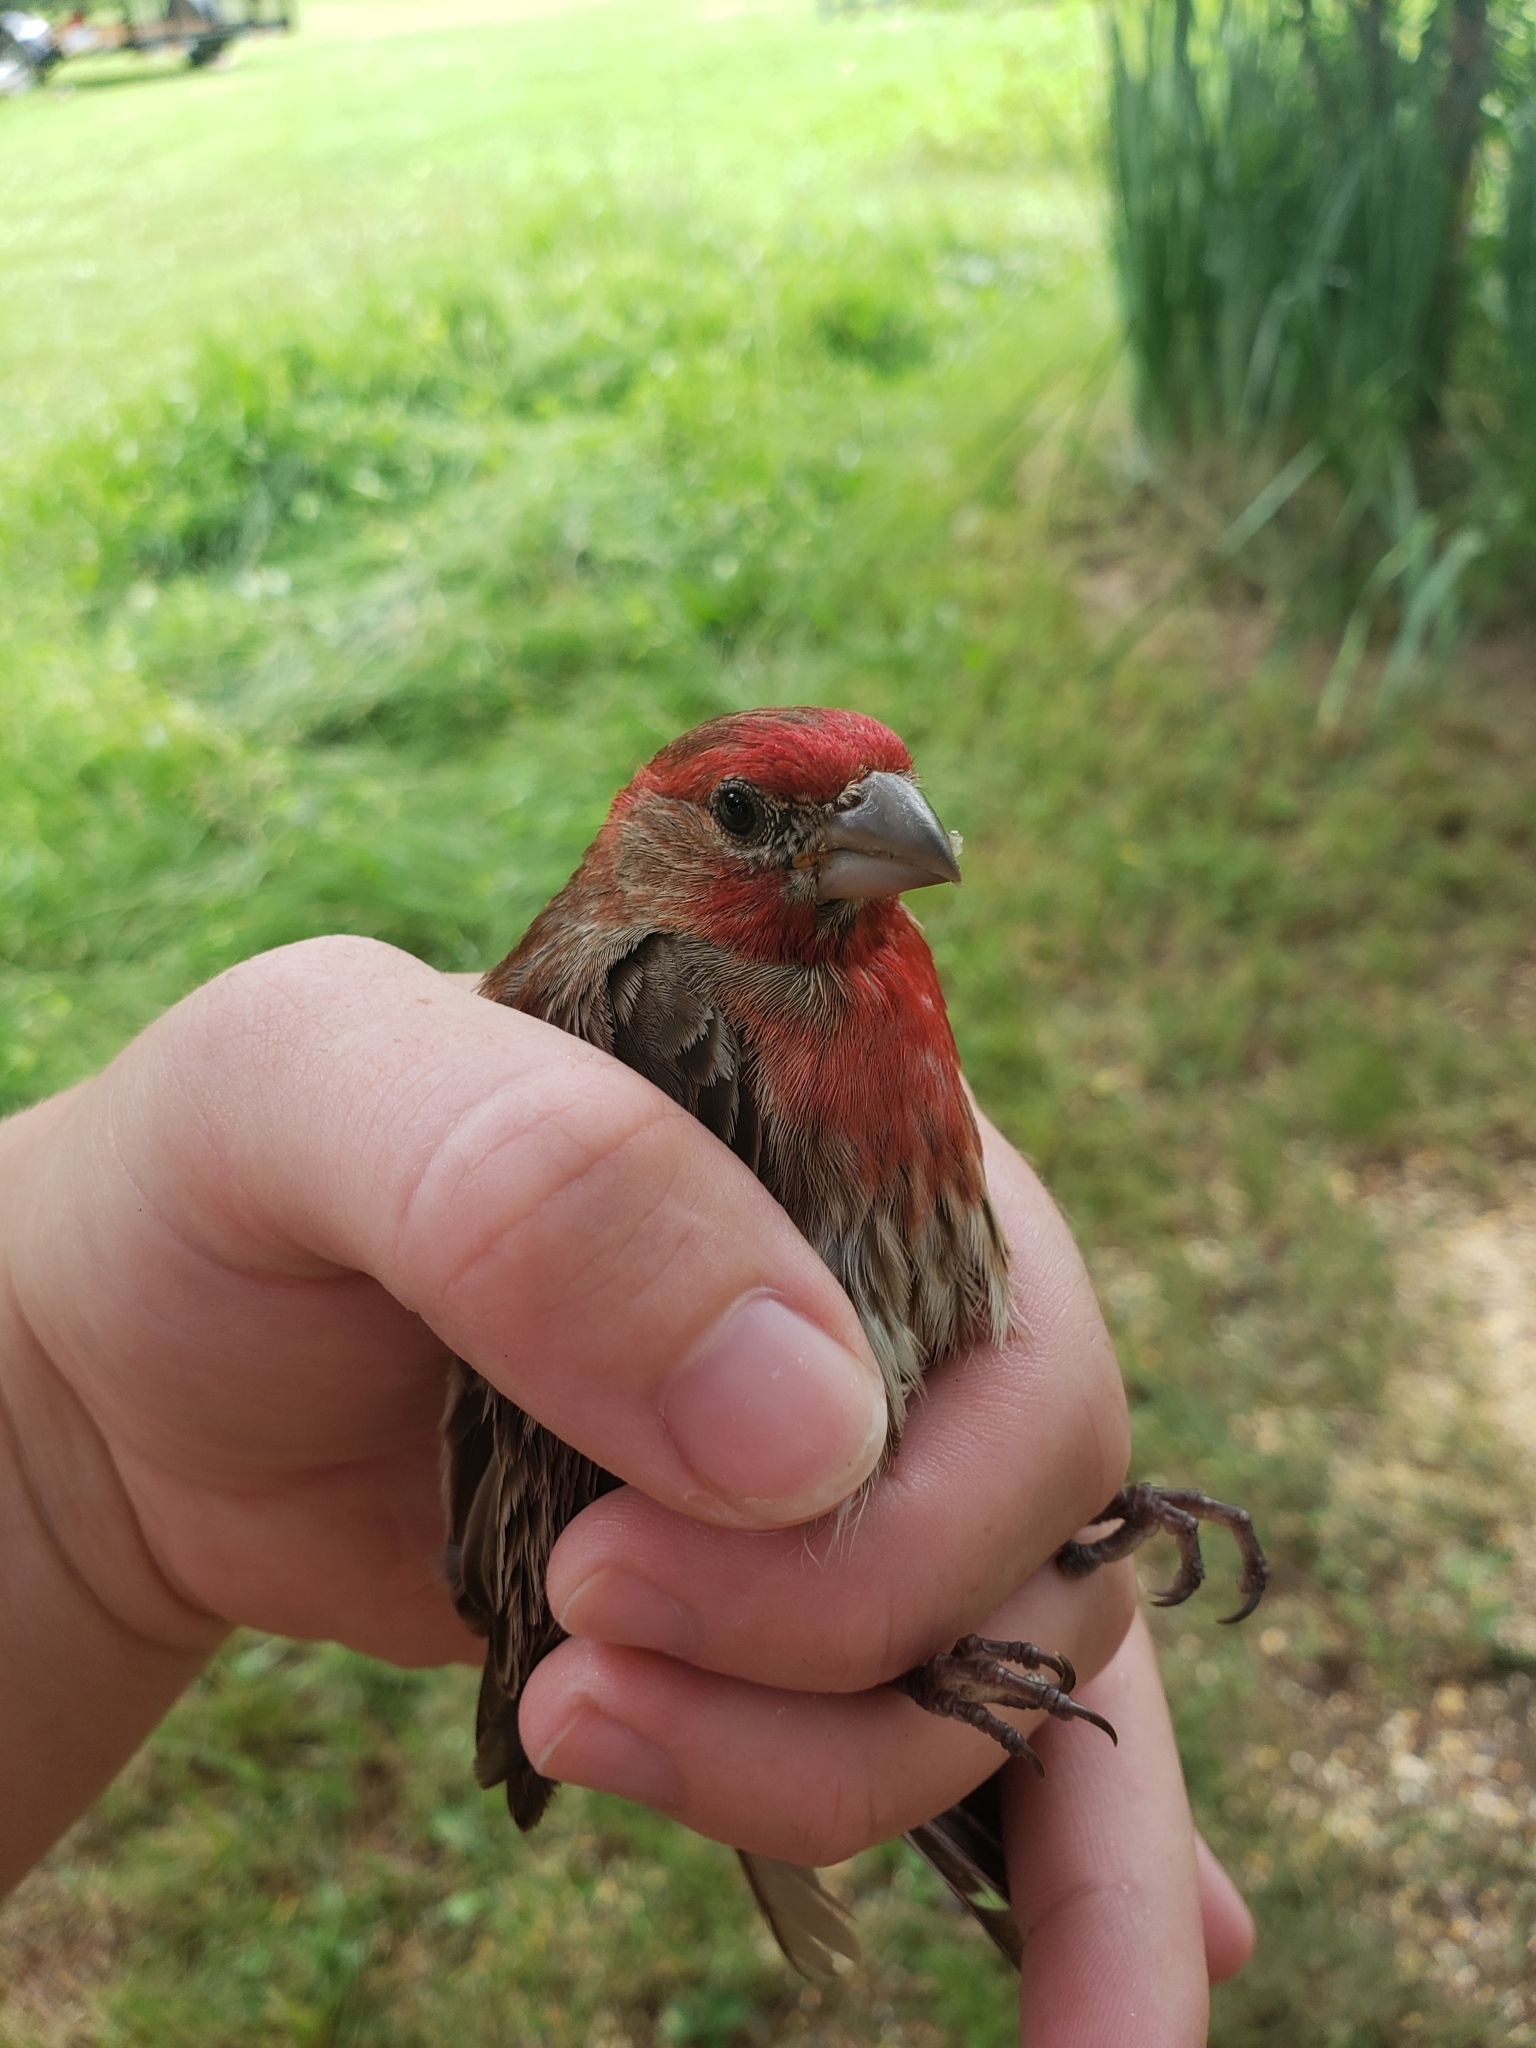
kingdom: Animalia
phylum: Chordata
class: Aves
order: Passeriformes
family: Fringillidae
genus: Haemorhous
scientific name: Haemorhous mexicanus
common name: House finch
